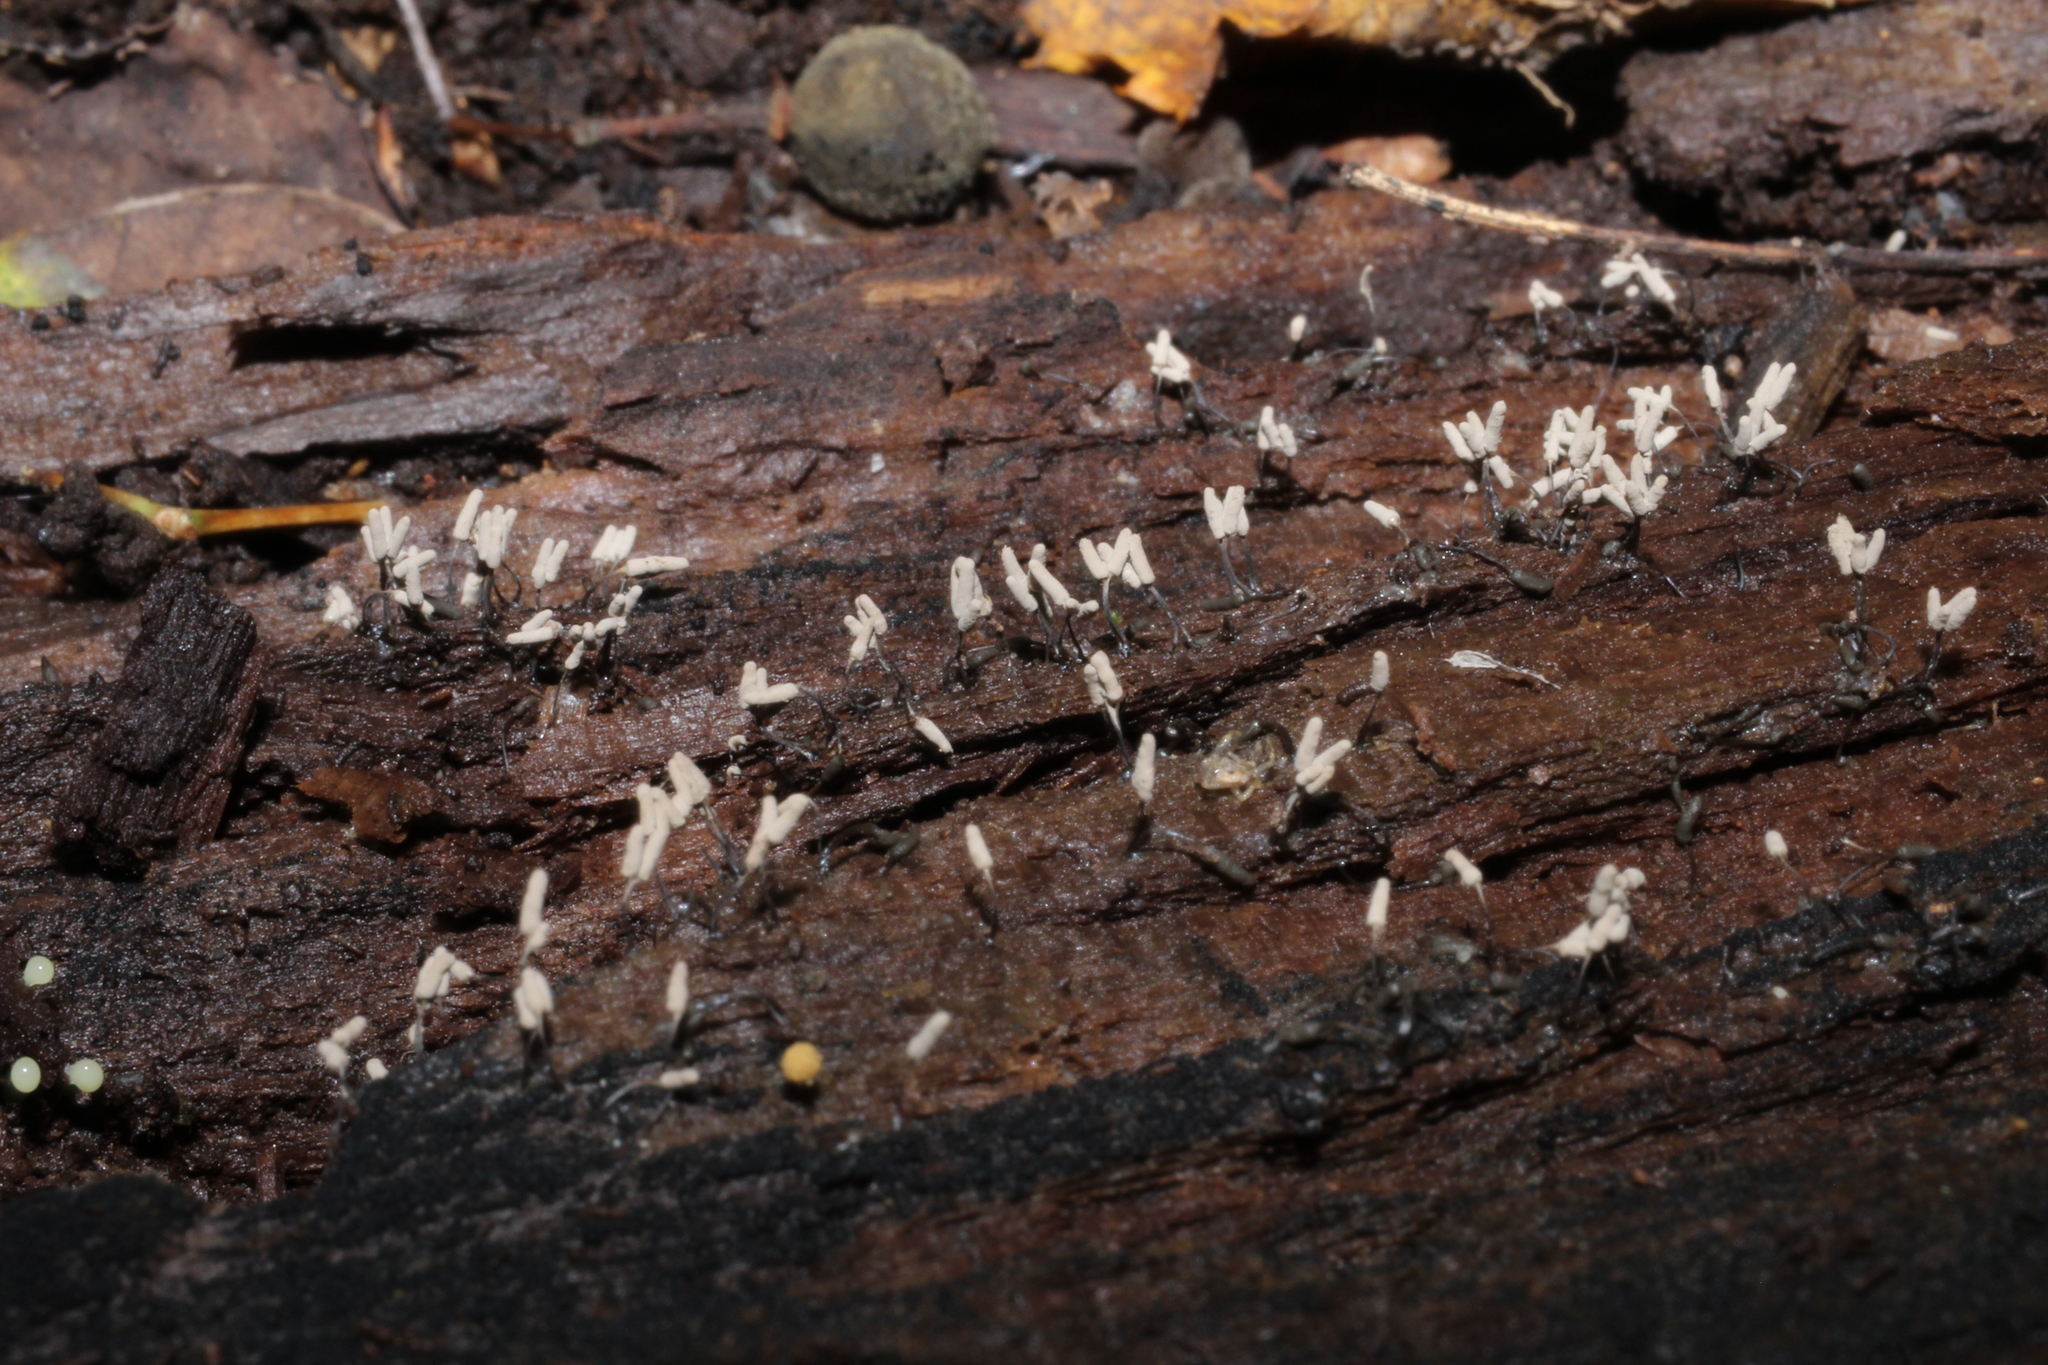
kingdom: Protozoa
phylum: Mycetozoa
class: Myxomycetes
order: Trichiales
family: Arcyriaceae
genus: Arcyria
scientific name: Arcyria cinerea
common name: White carnival candy slime mold
